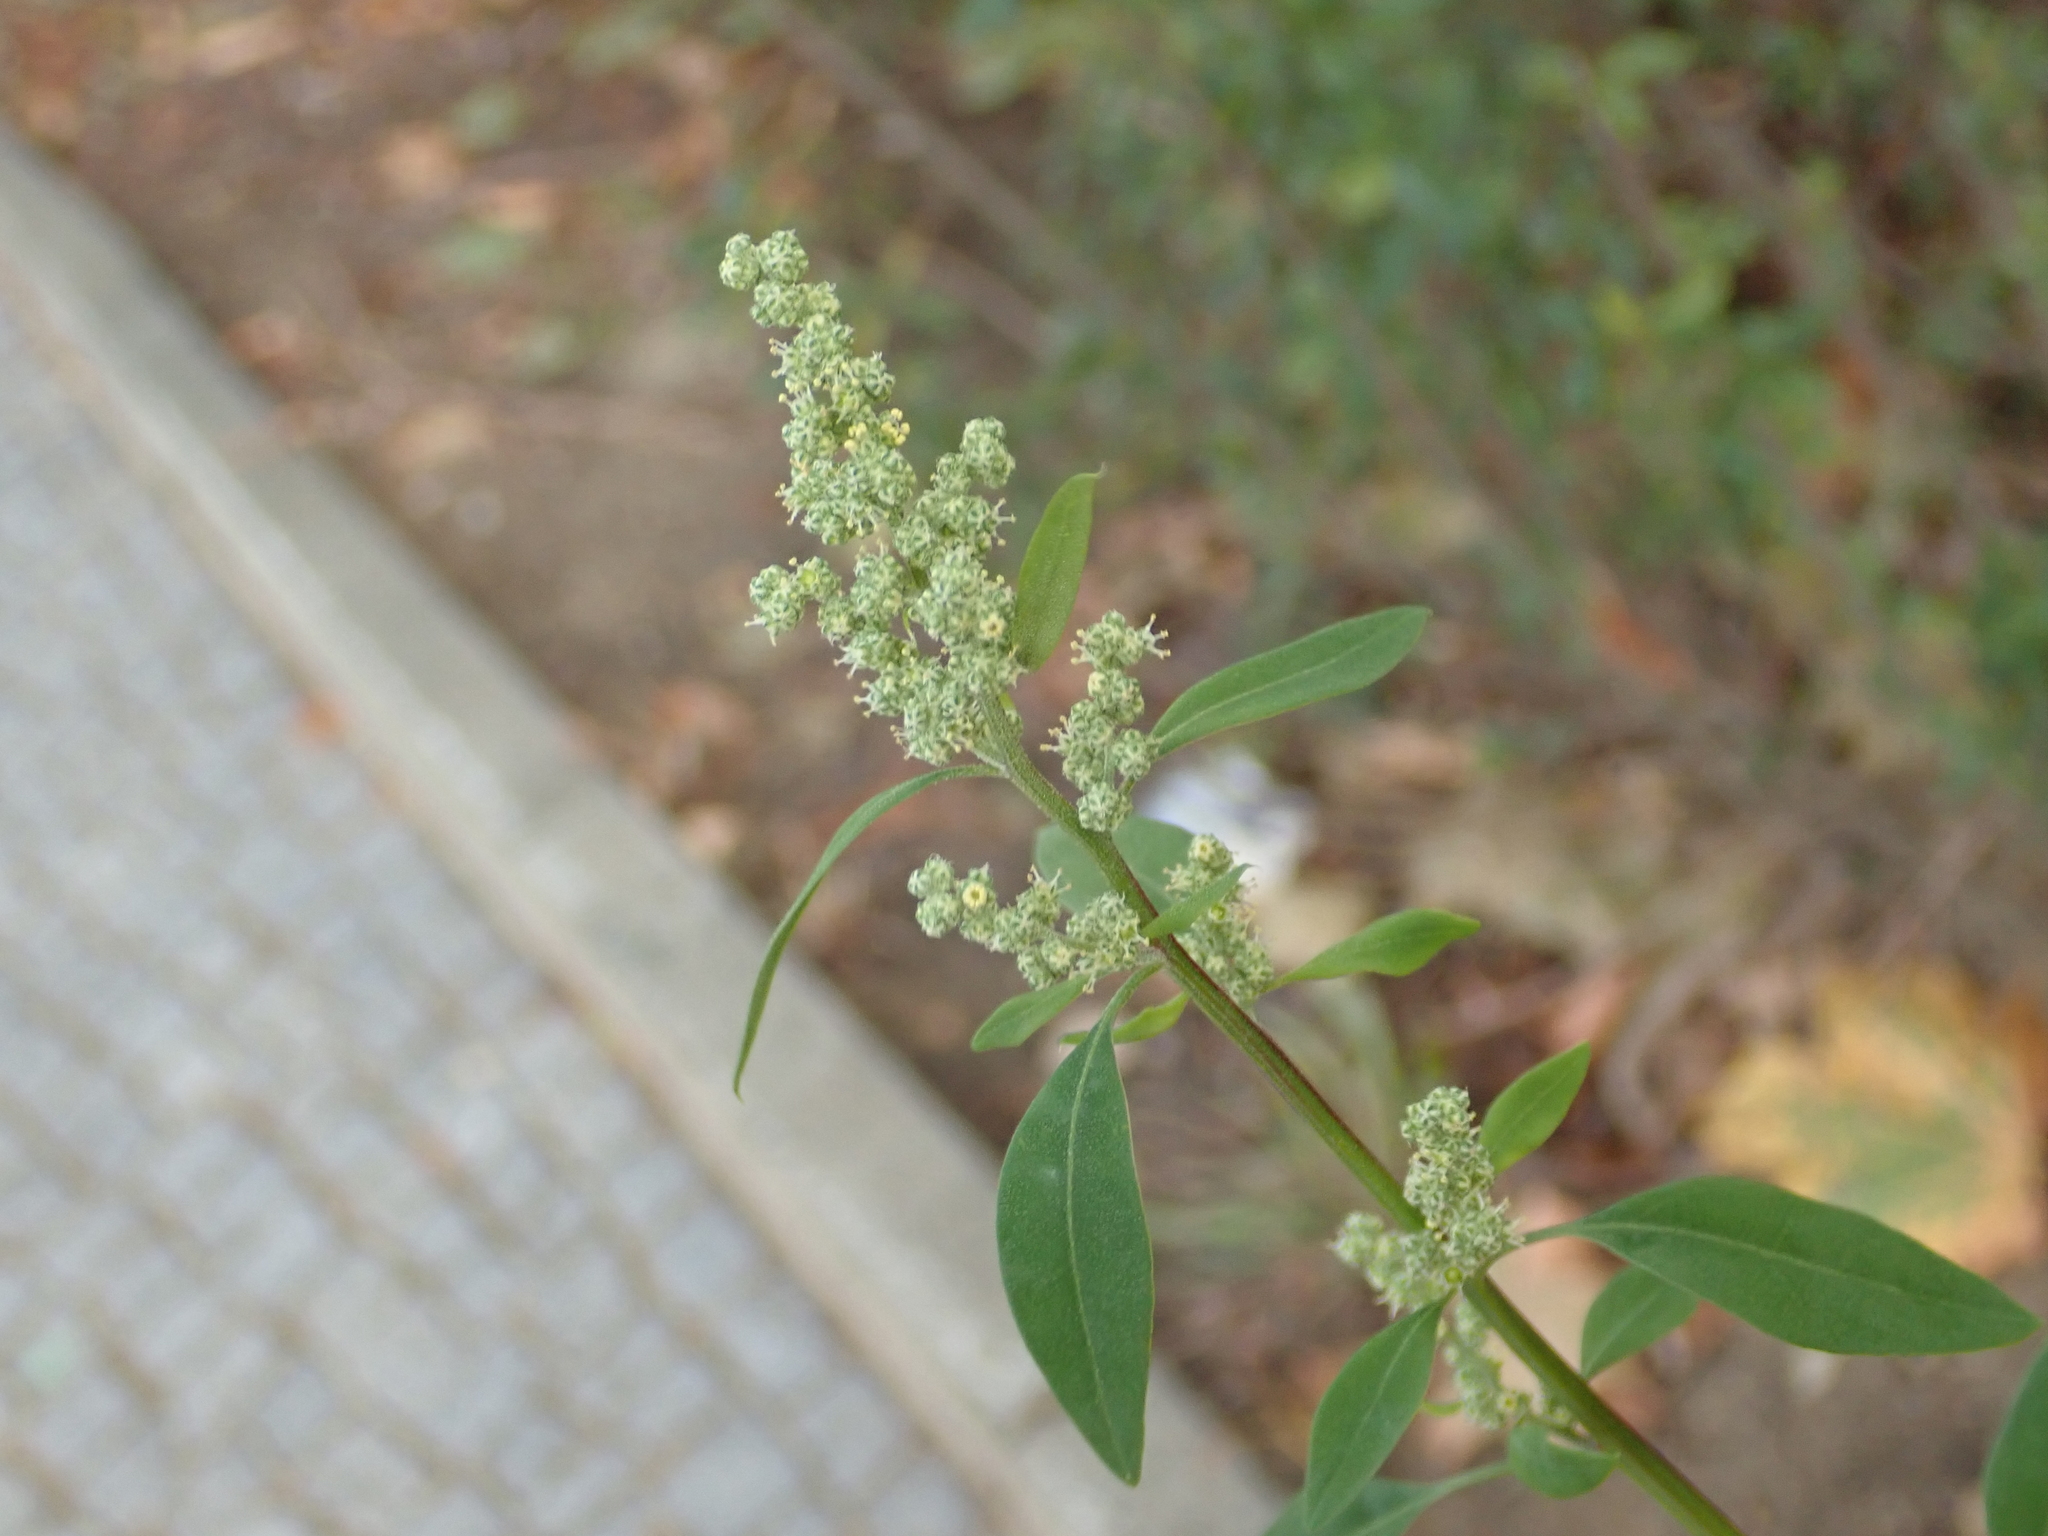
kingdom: Plantae
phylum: Tracheophyta
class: Magnoliopsida
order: Caryophyllales
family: Amaranthaceae
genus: Chenopodium
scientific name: Chenopodium album
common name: Fat-hen
